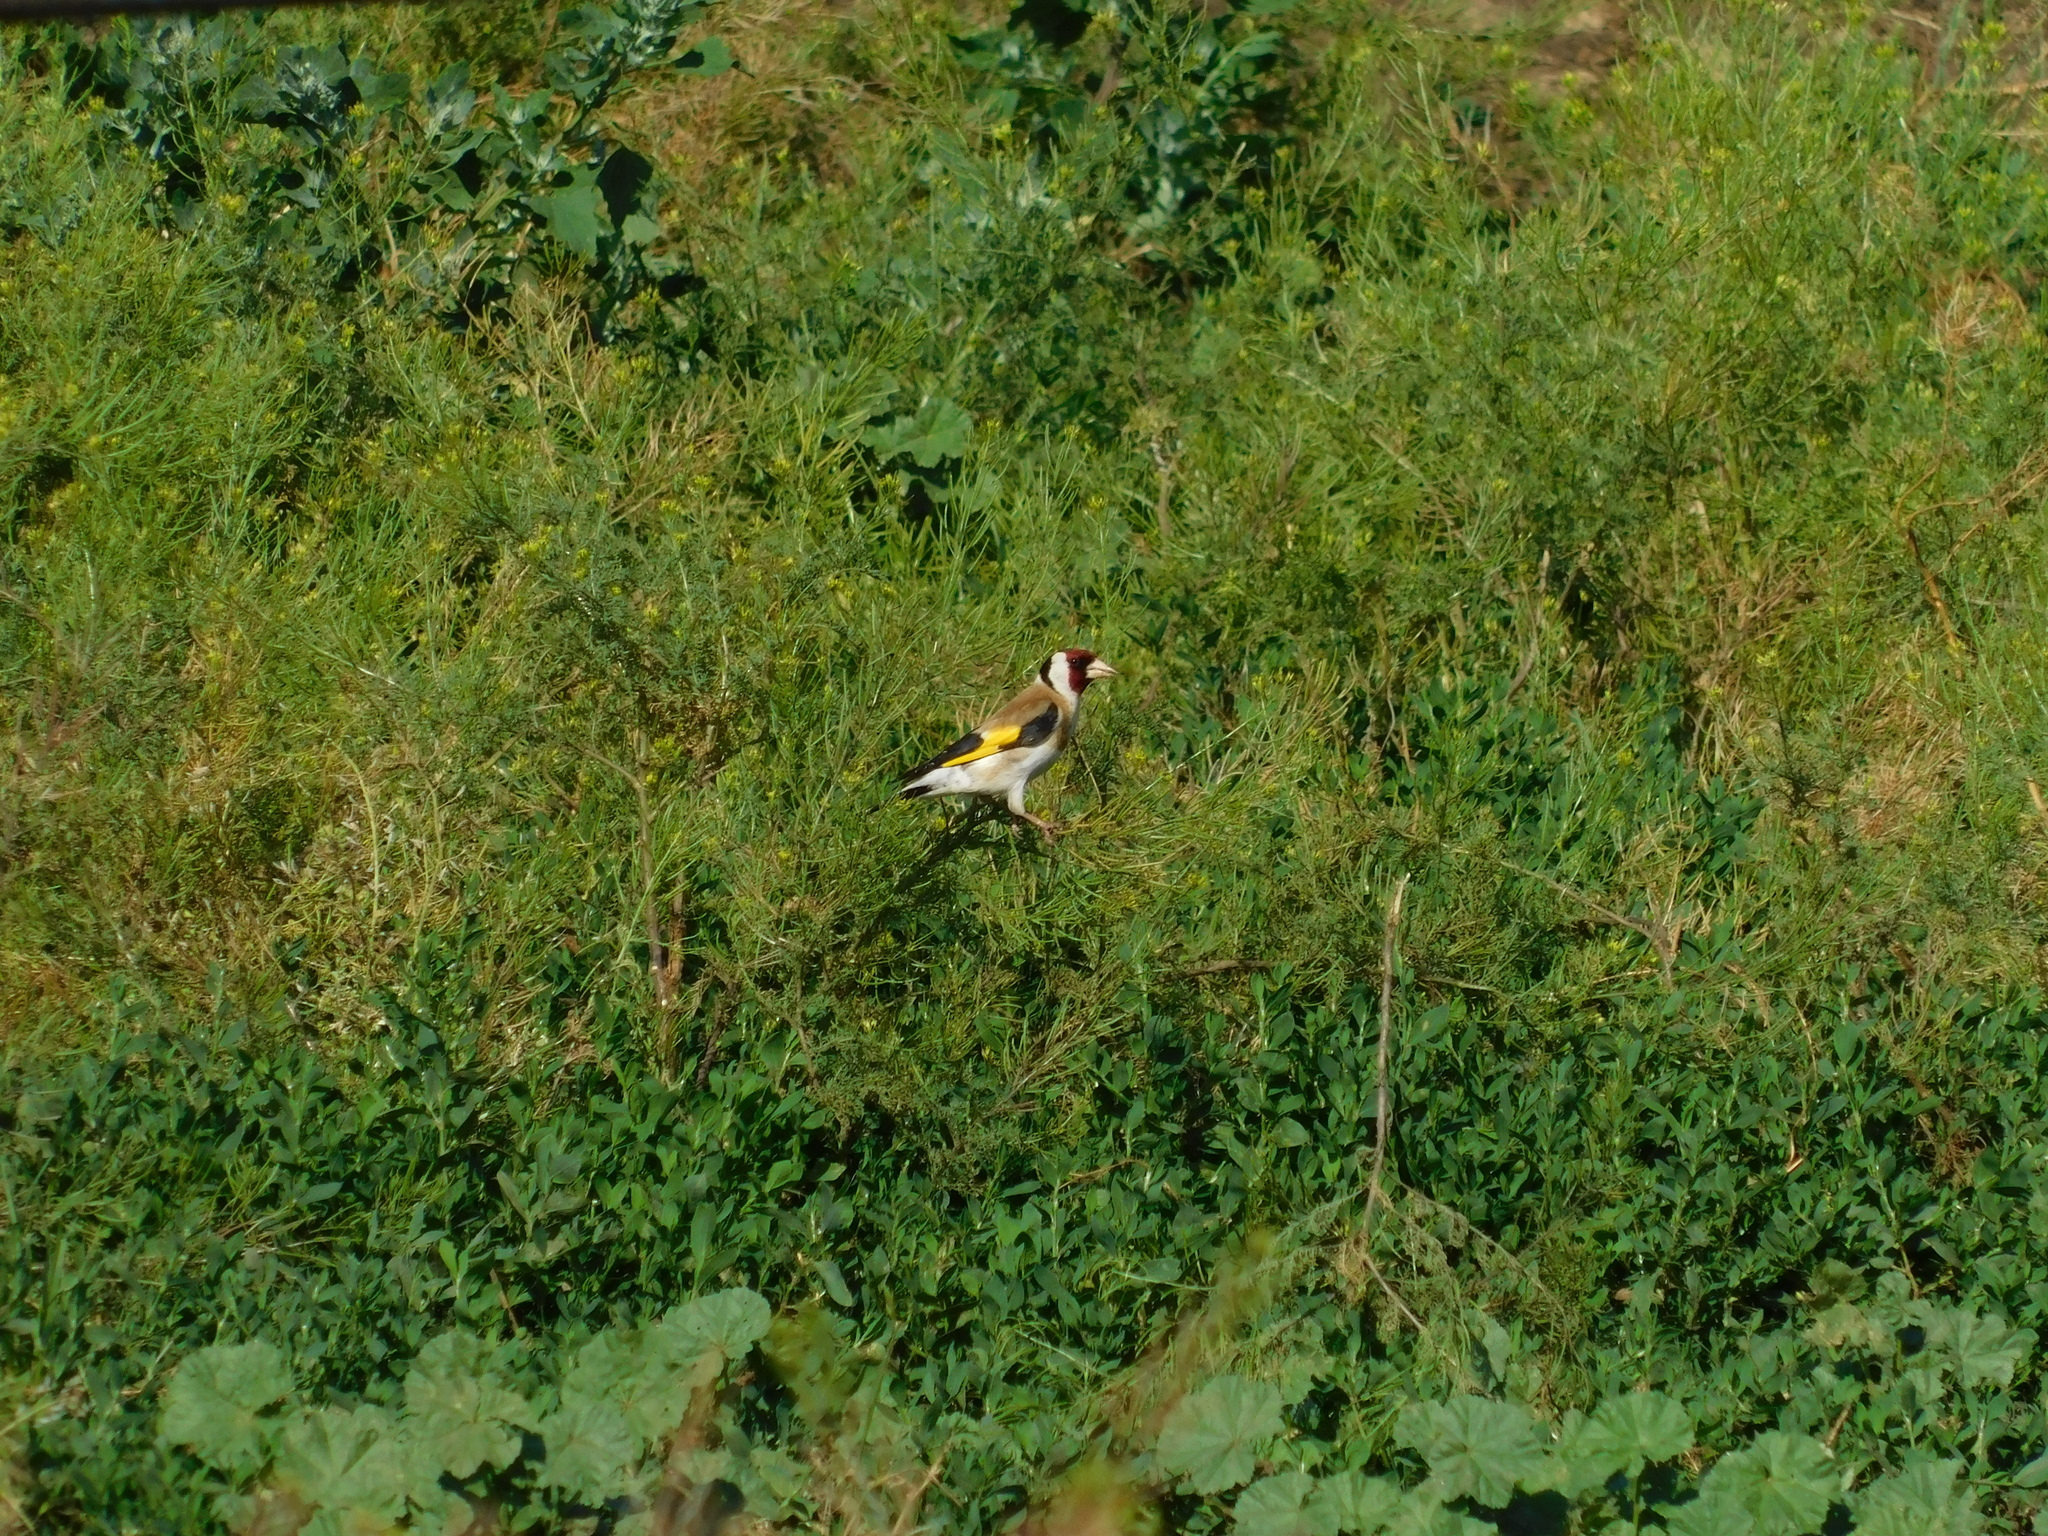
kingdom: Animalia
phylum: Chordata
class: Aves
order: Passeriformes
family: Fringillidae
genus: Carduelis
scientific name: Carduelis carduelis
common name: European goldfinch
